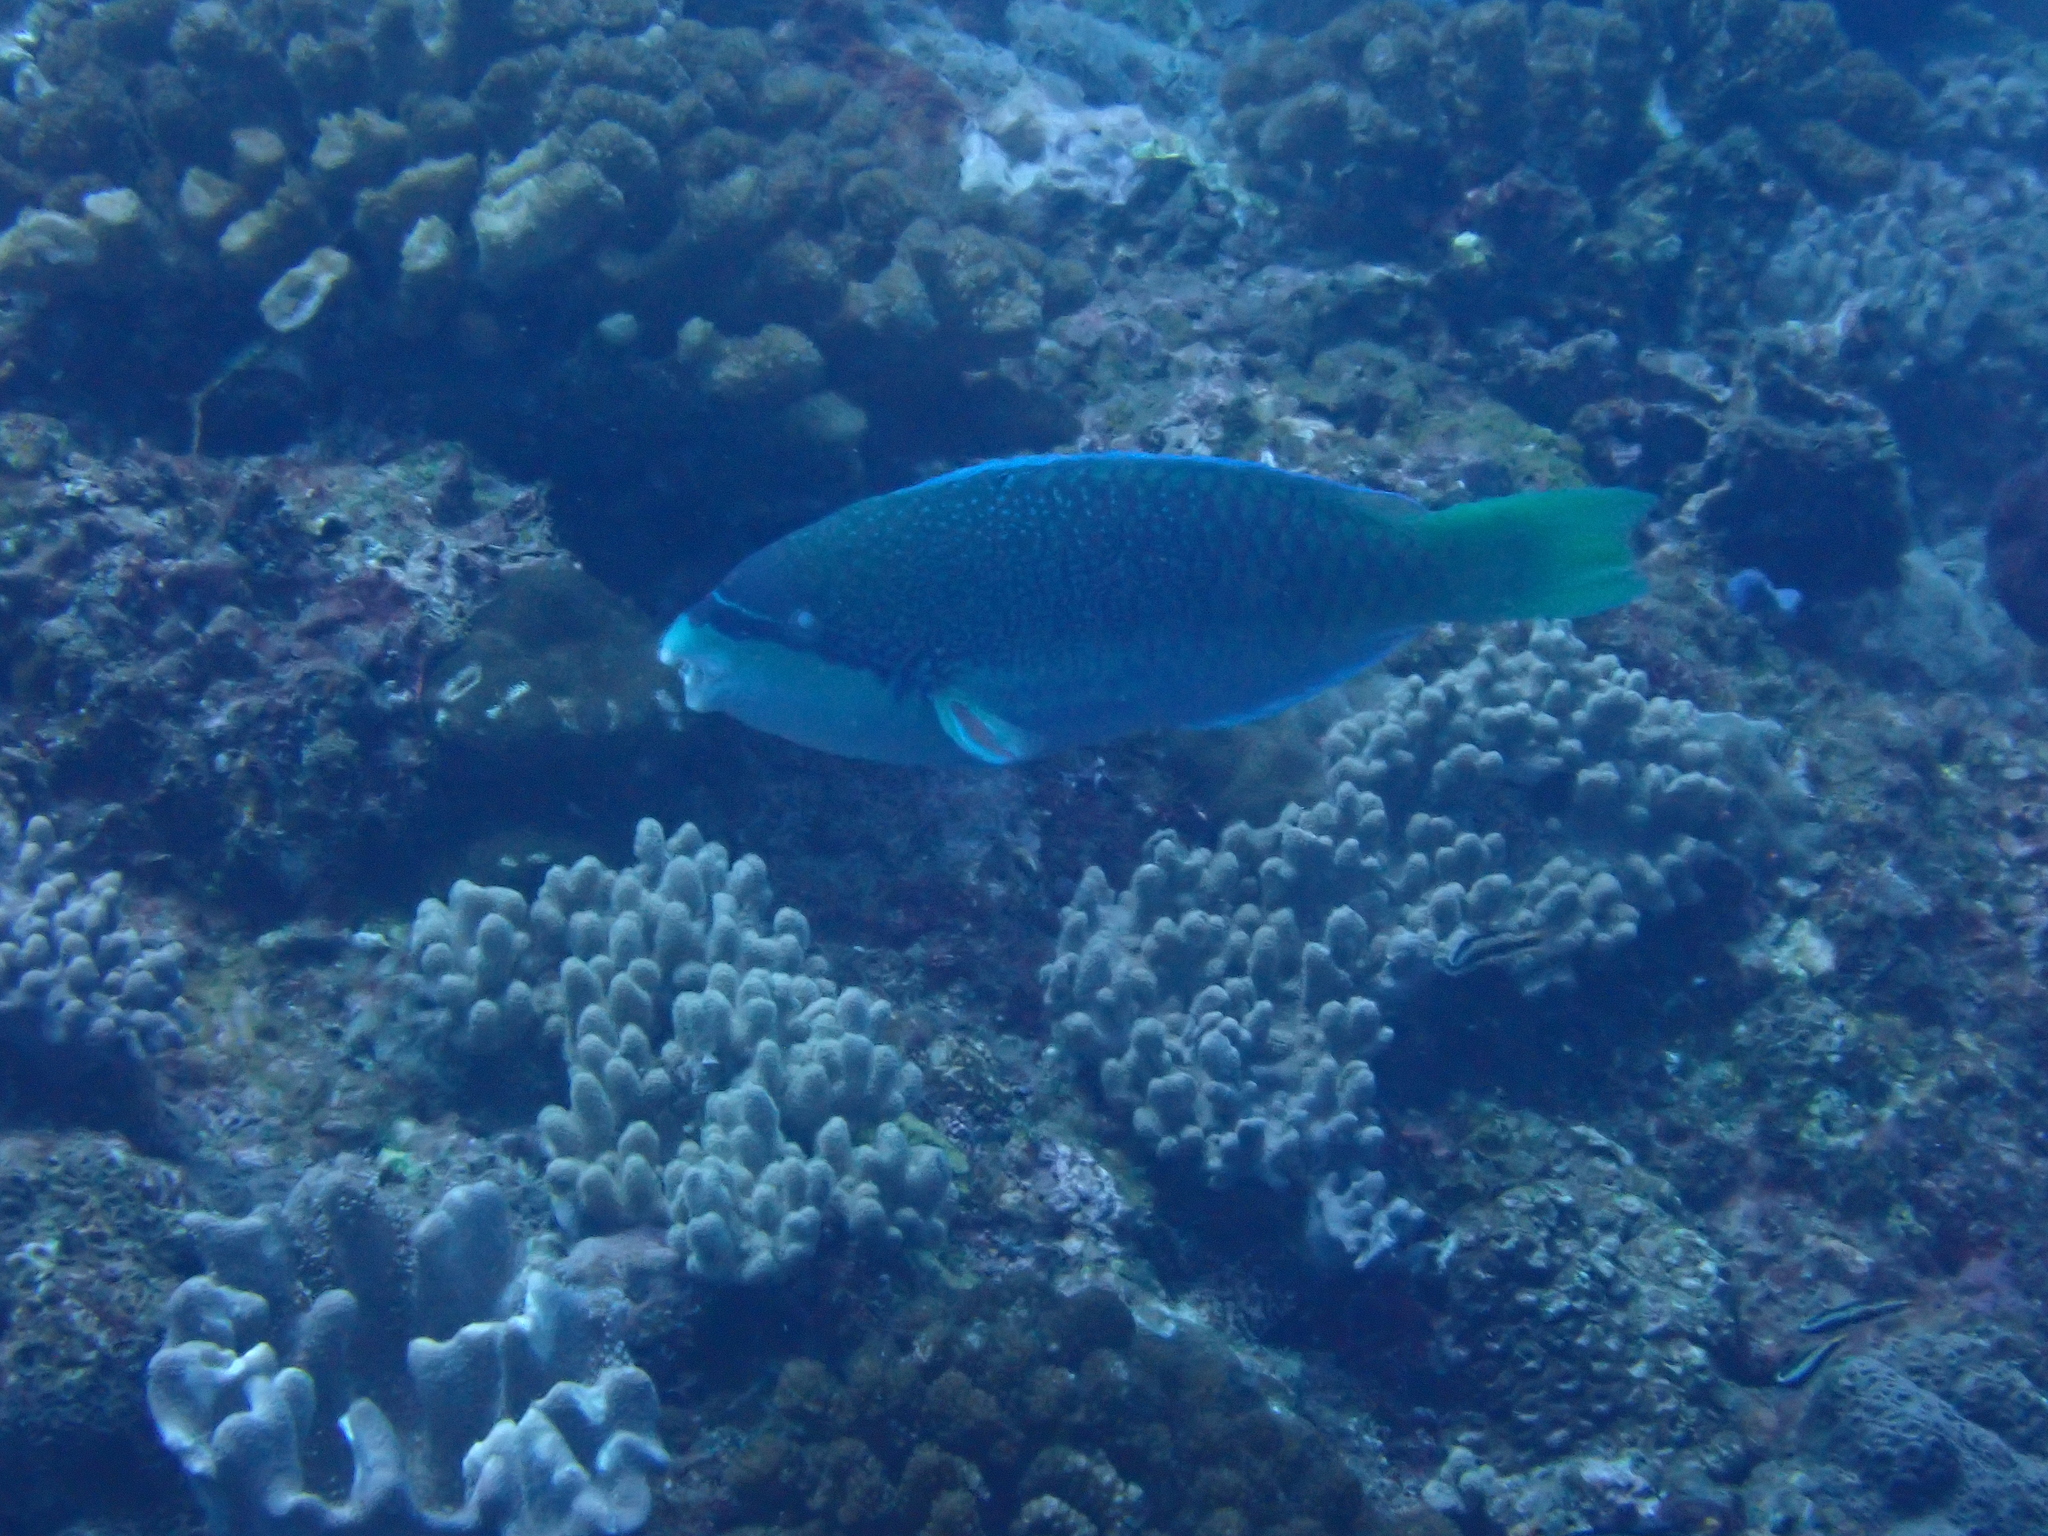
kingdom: Animalia
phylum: Chordata
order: Perciformes
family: Scaridae
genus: Scarus
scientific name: Scarus globiceps
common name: Globehead parrotfish
